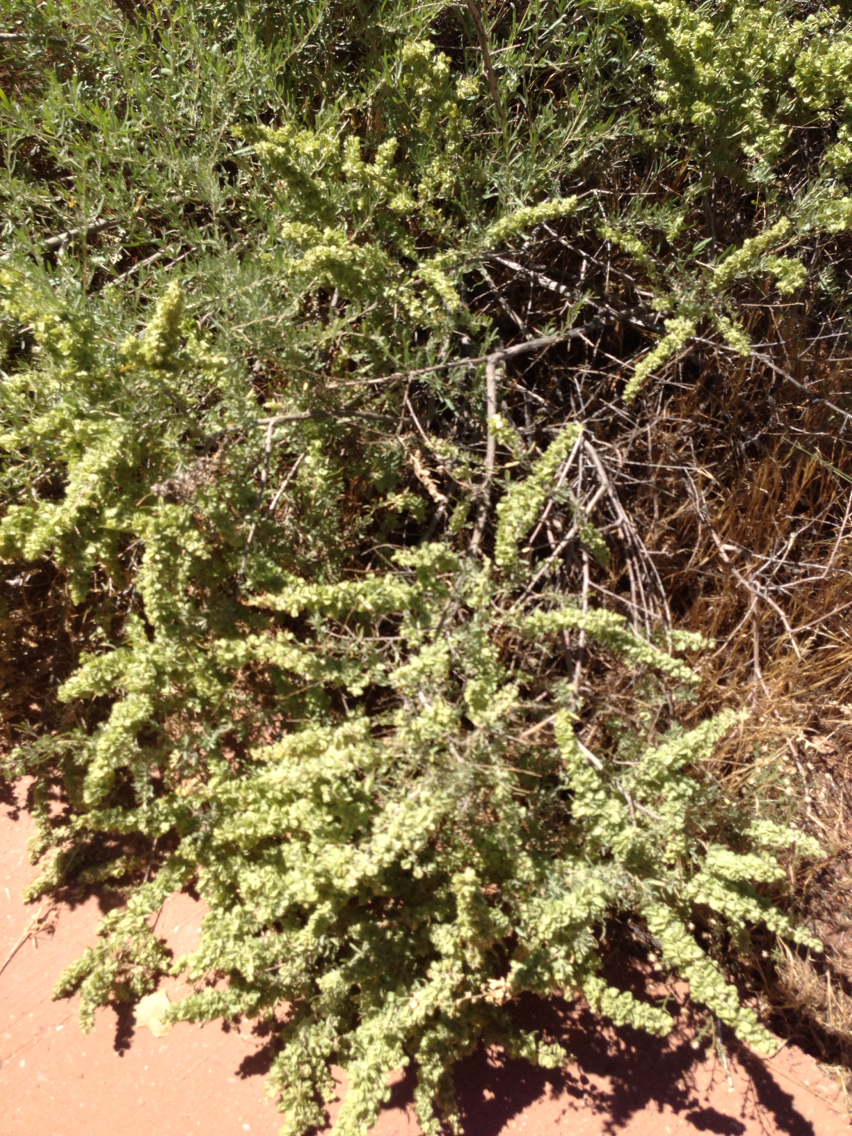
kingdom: Plantae
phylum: Tracheophyta
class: Magnoliopsida
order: Caryophyllales
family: Amaranthaceae
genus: Atriplex
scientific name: Atriplex canescens
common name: Four-wing saltbush
